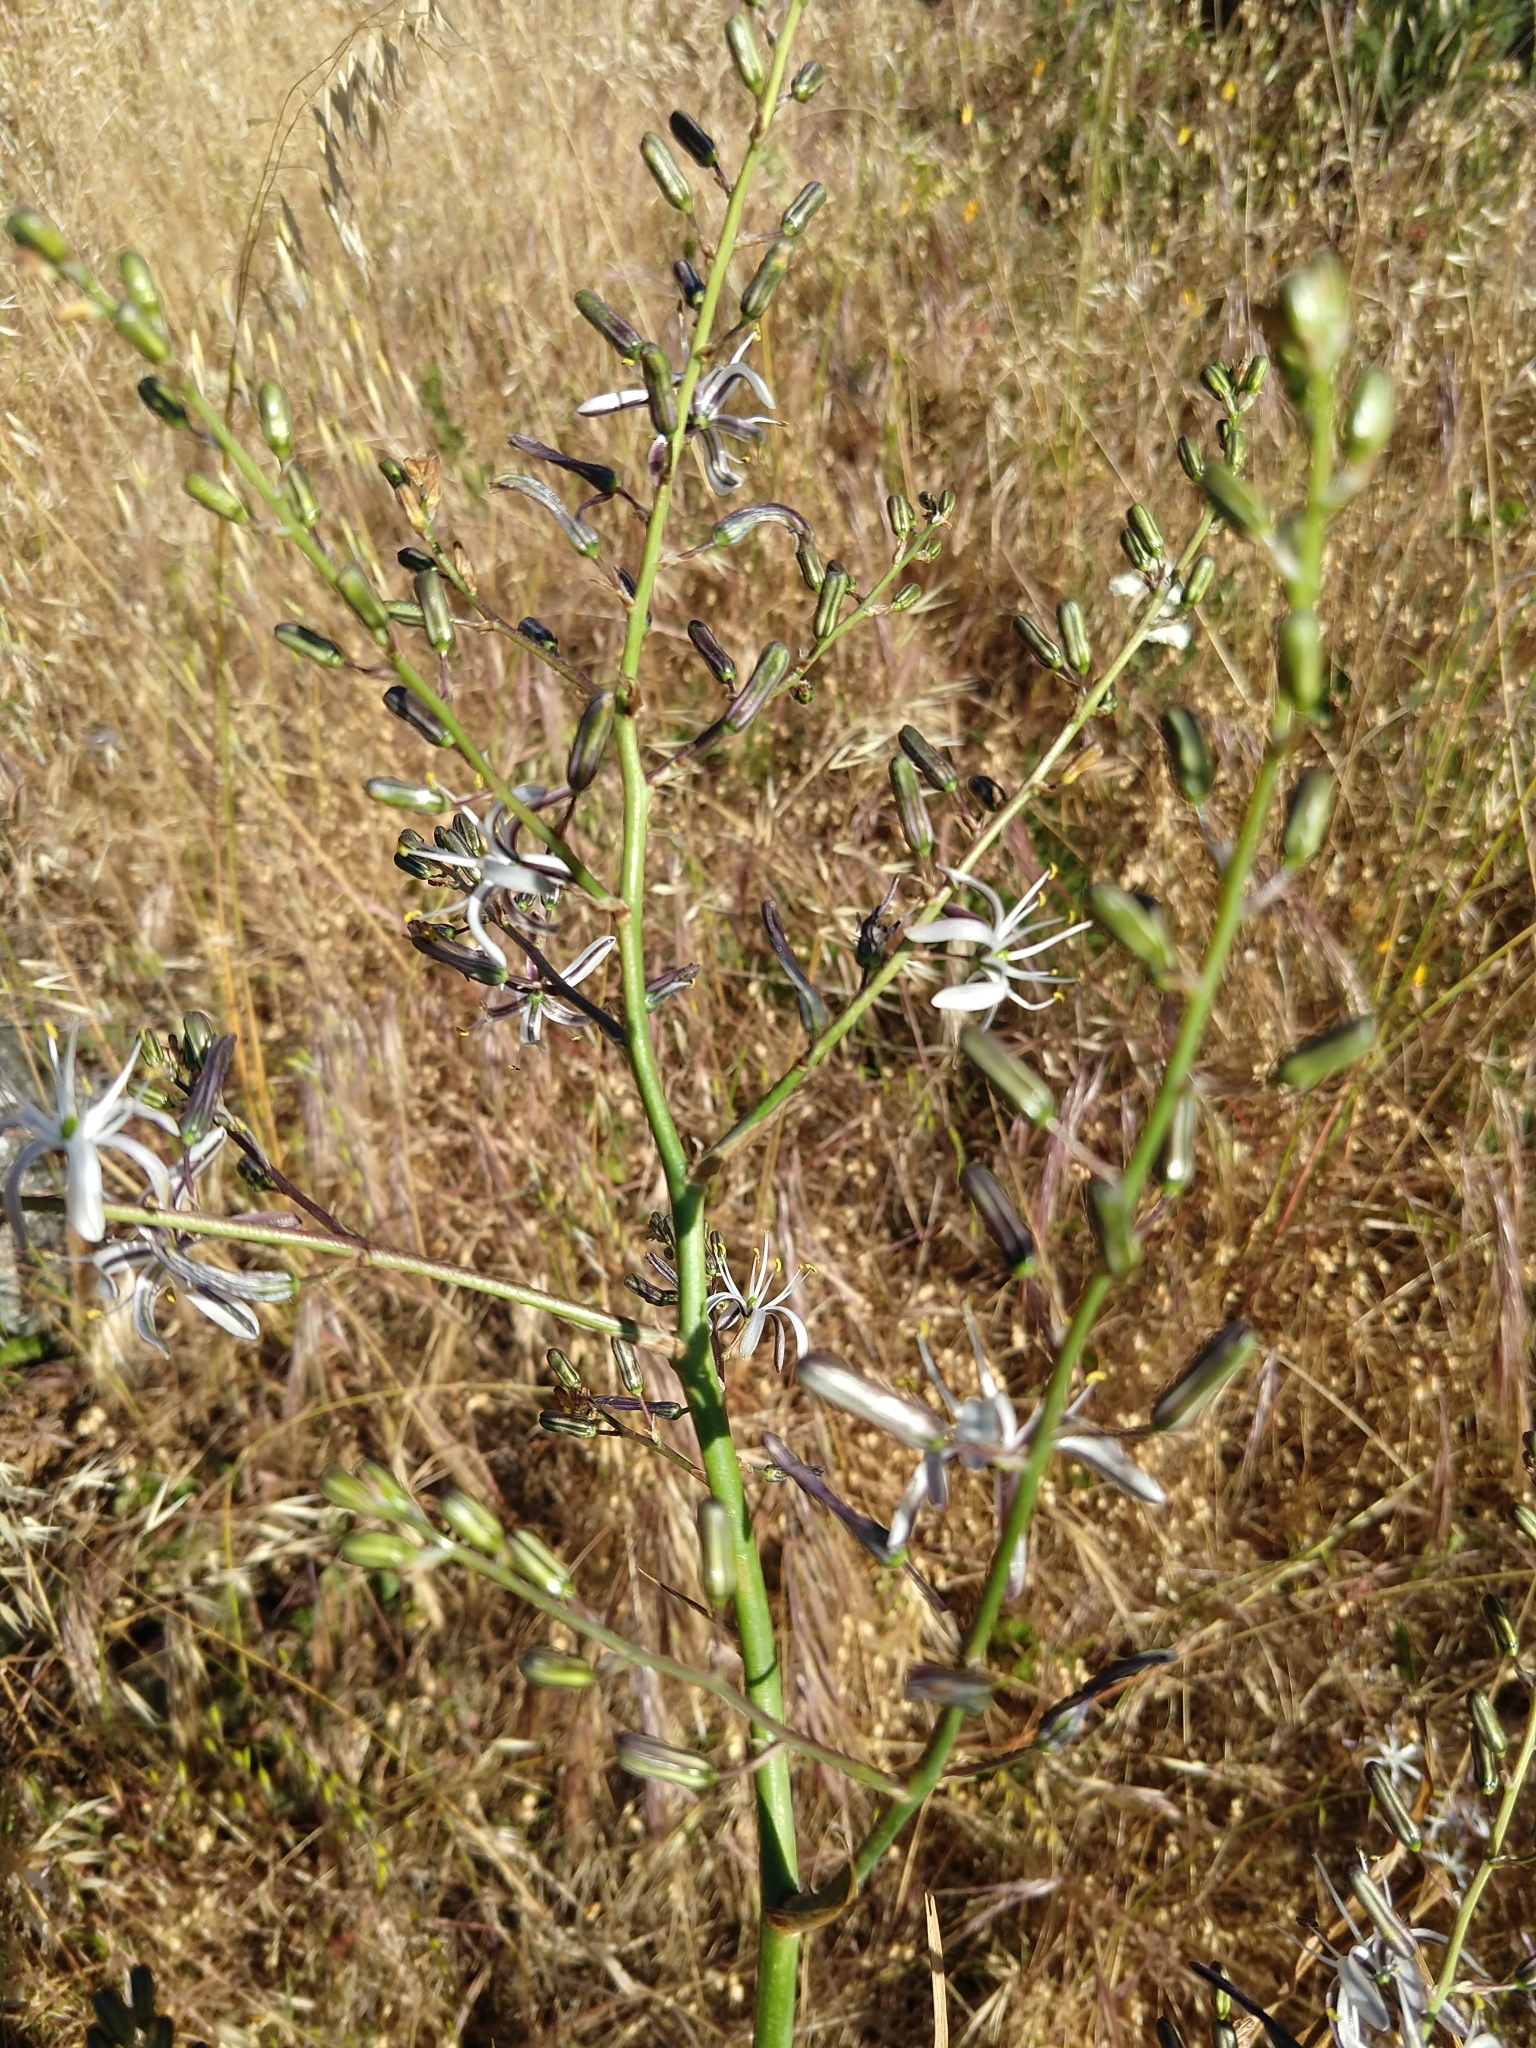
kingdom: Plantae
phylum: Tracheophyta
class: Liliopsida
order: Asparagales
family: Asparagaceae
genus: Chlorogalum
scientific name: Chlorogalum pomeridianum
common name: Amole
